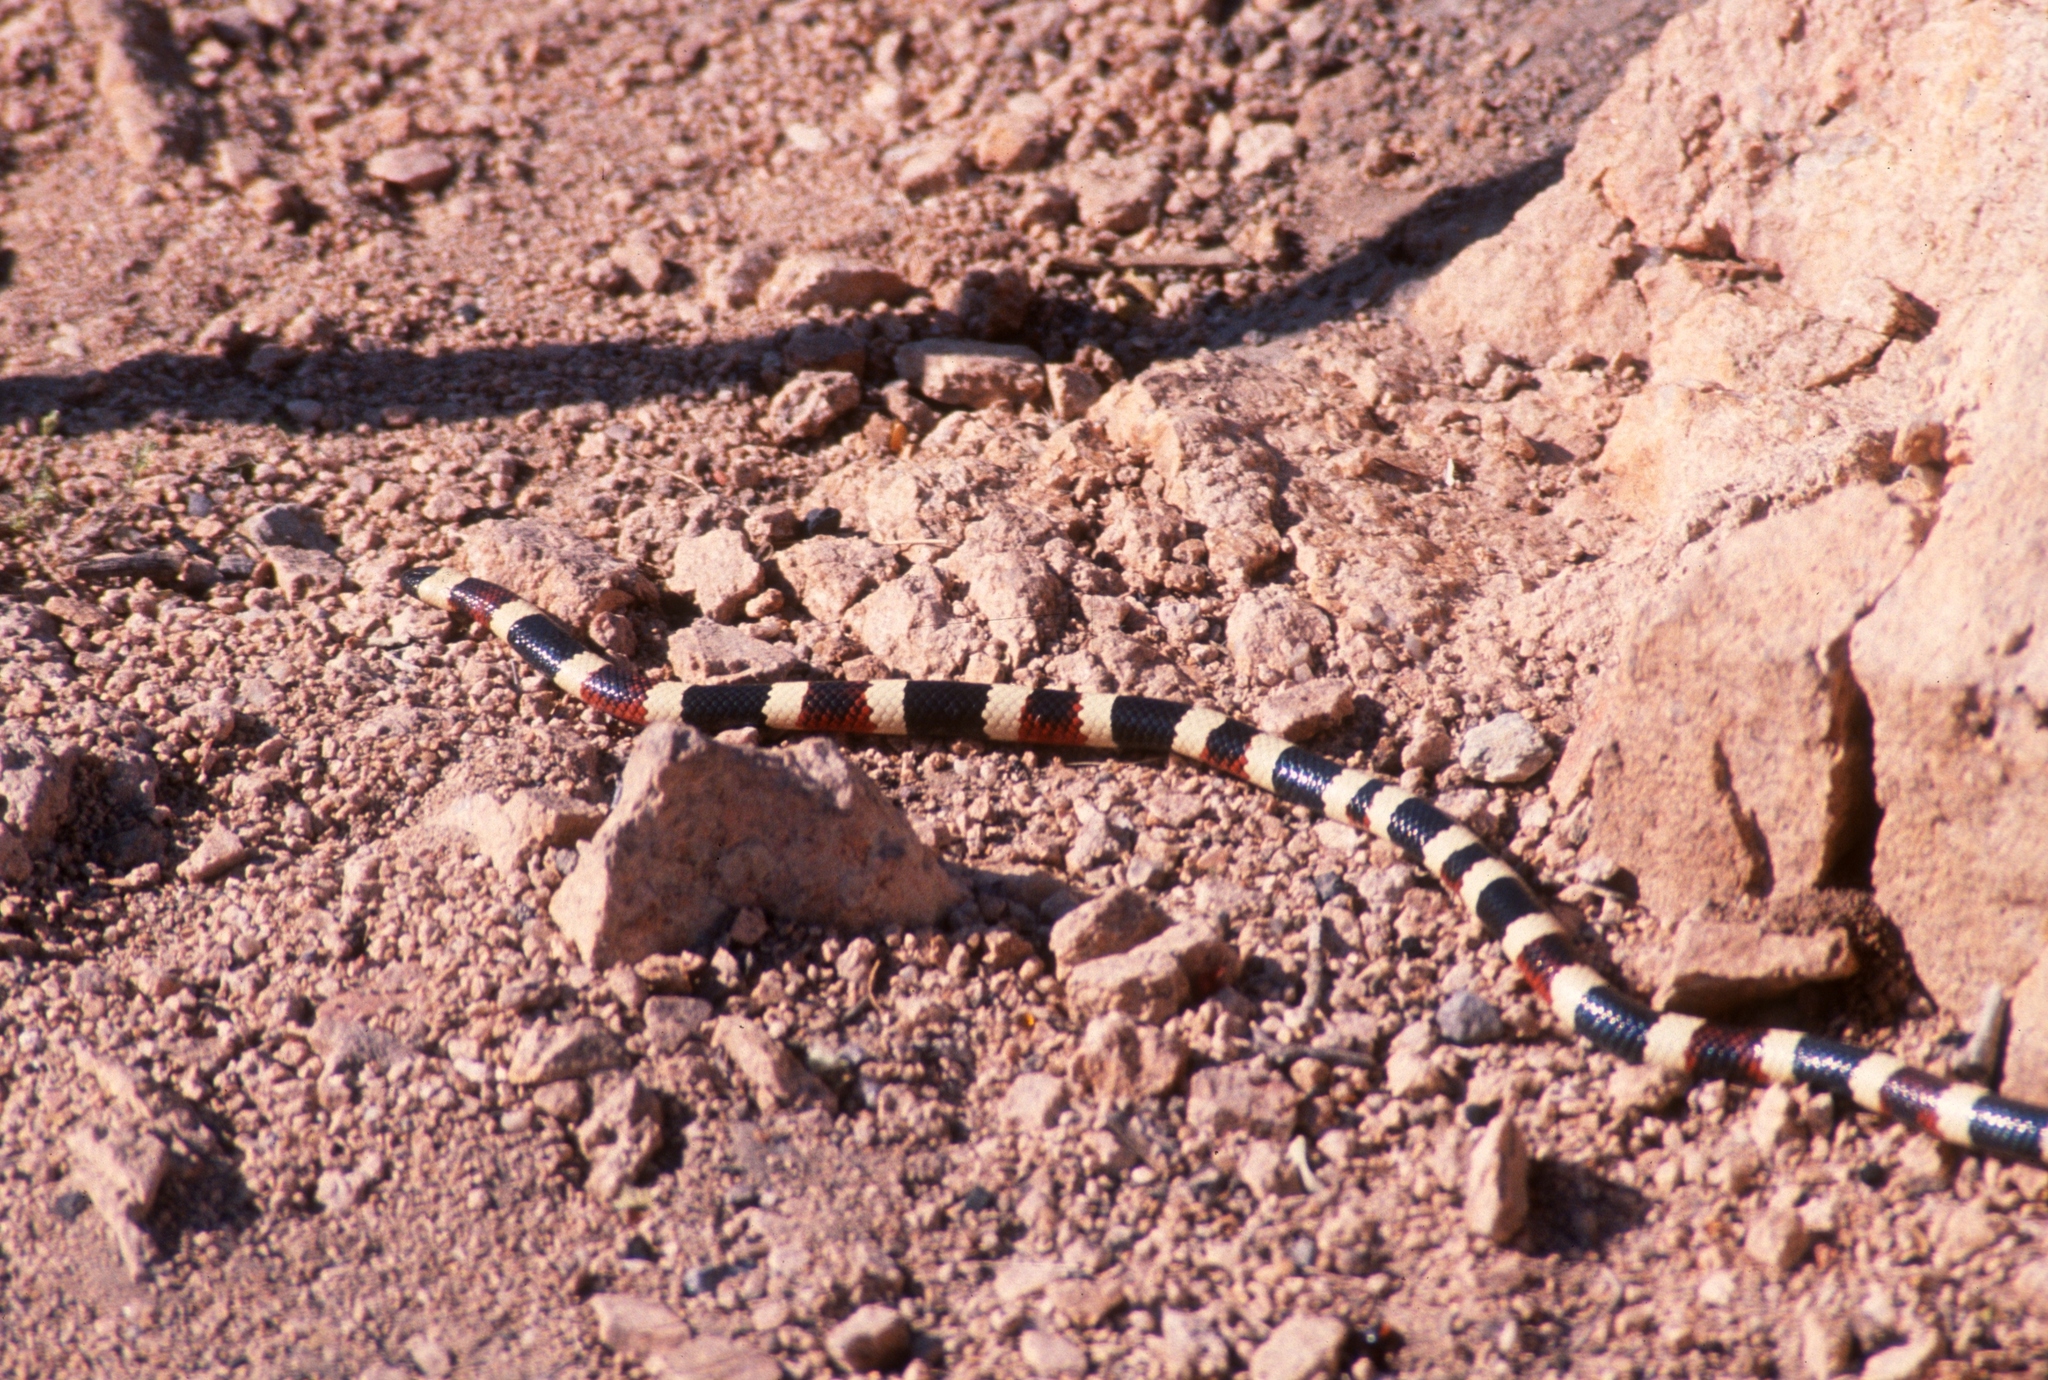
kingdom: Animalia
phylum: Chordata
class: Squamata
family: Elapidae
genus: Micruroides
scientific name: Micruroides euryxanthus
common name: Western coral snake
